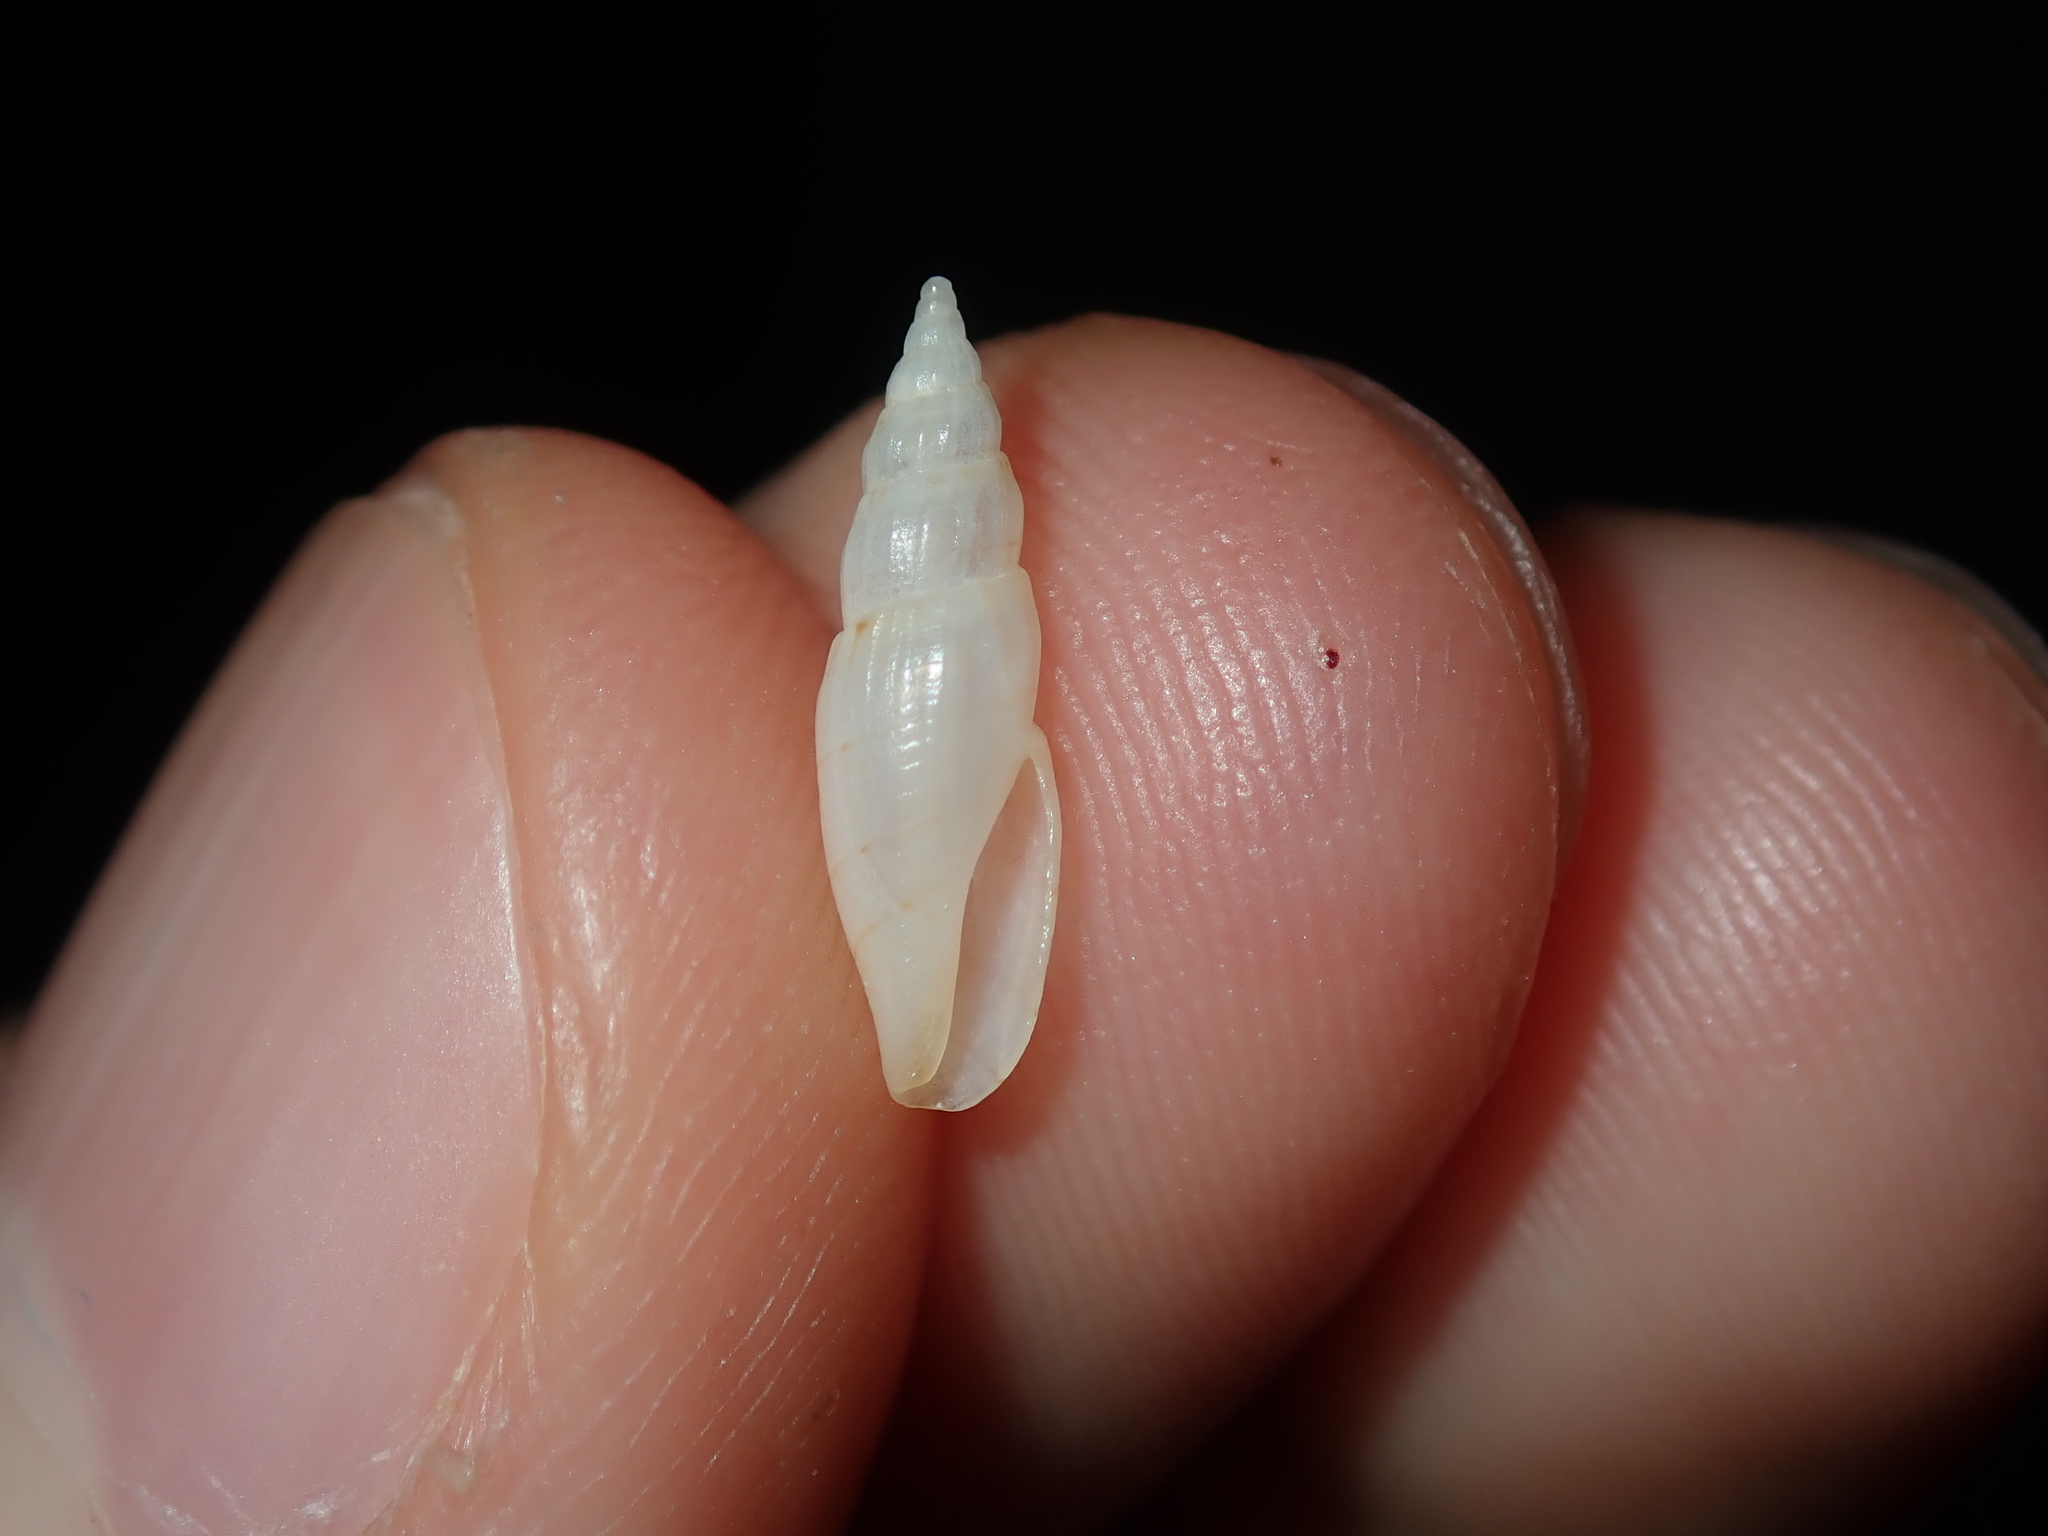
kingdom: Animalia
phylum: Mollusca
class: Gastropoda
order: Neogastropoda
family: Mangeliidae
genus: Parviterebra
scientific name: Parviterebra trilineata
